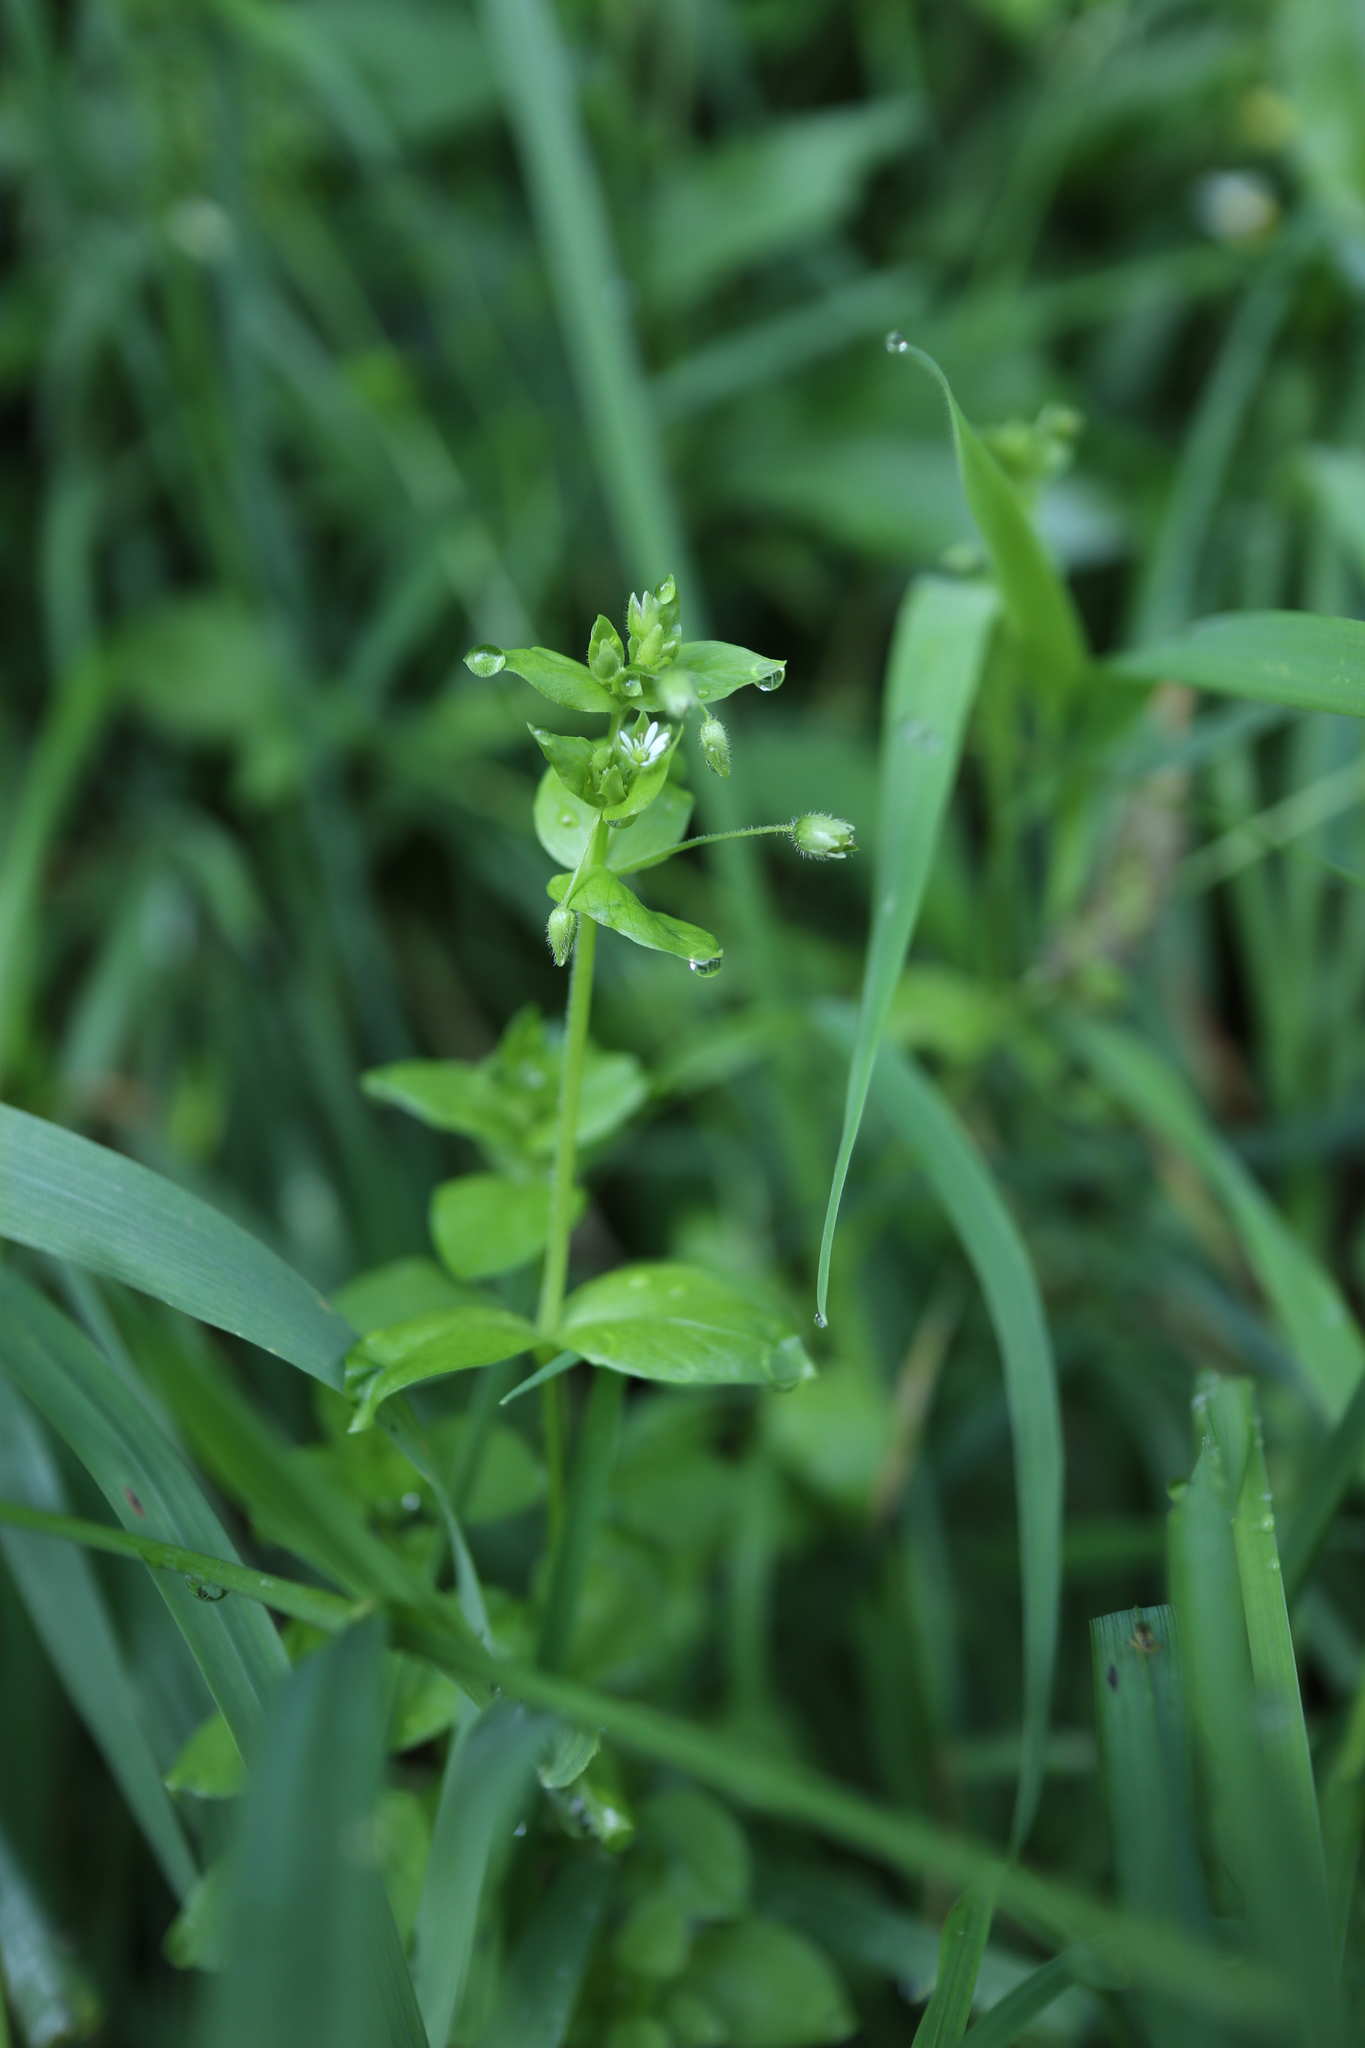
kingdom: Plantae
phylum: Tracheophyta
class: Magnoliopsida
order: Caryophyllales
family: Caryophyllaceae
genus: Stellaria
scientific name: Stellaria media
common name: Common chickweed
